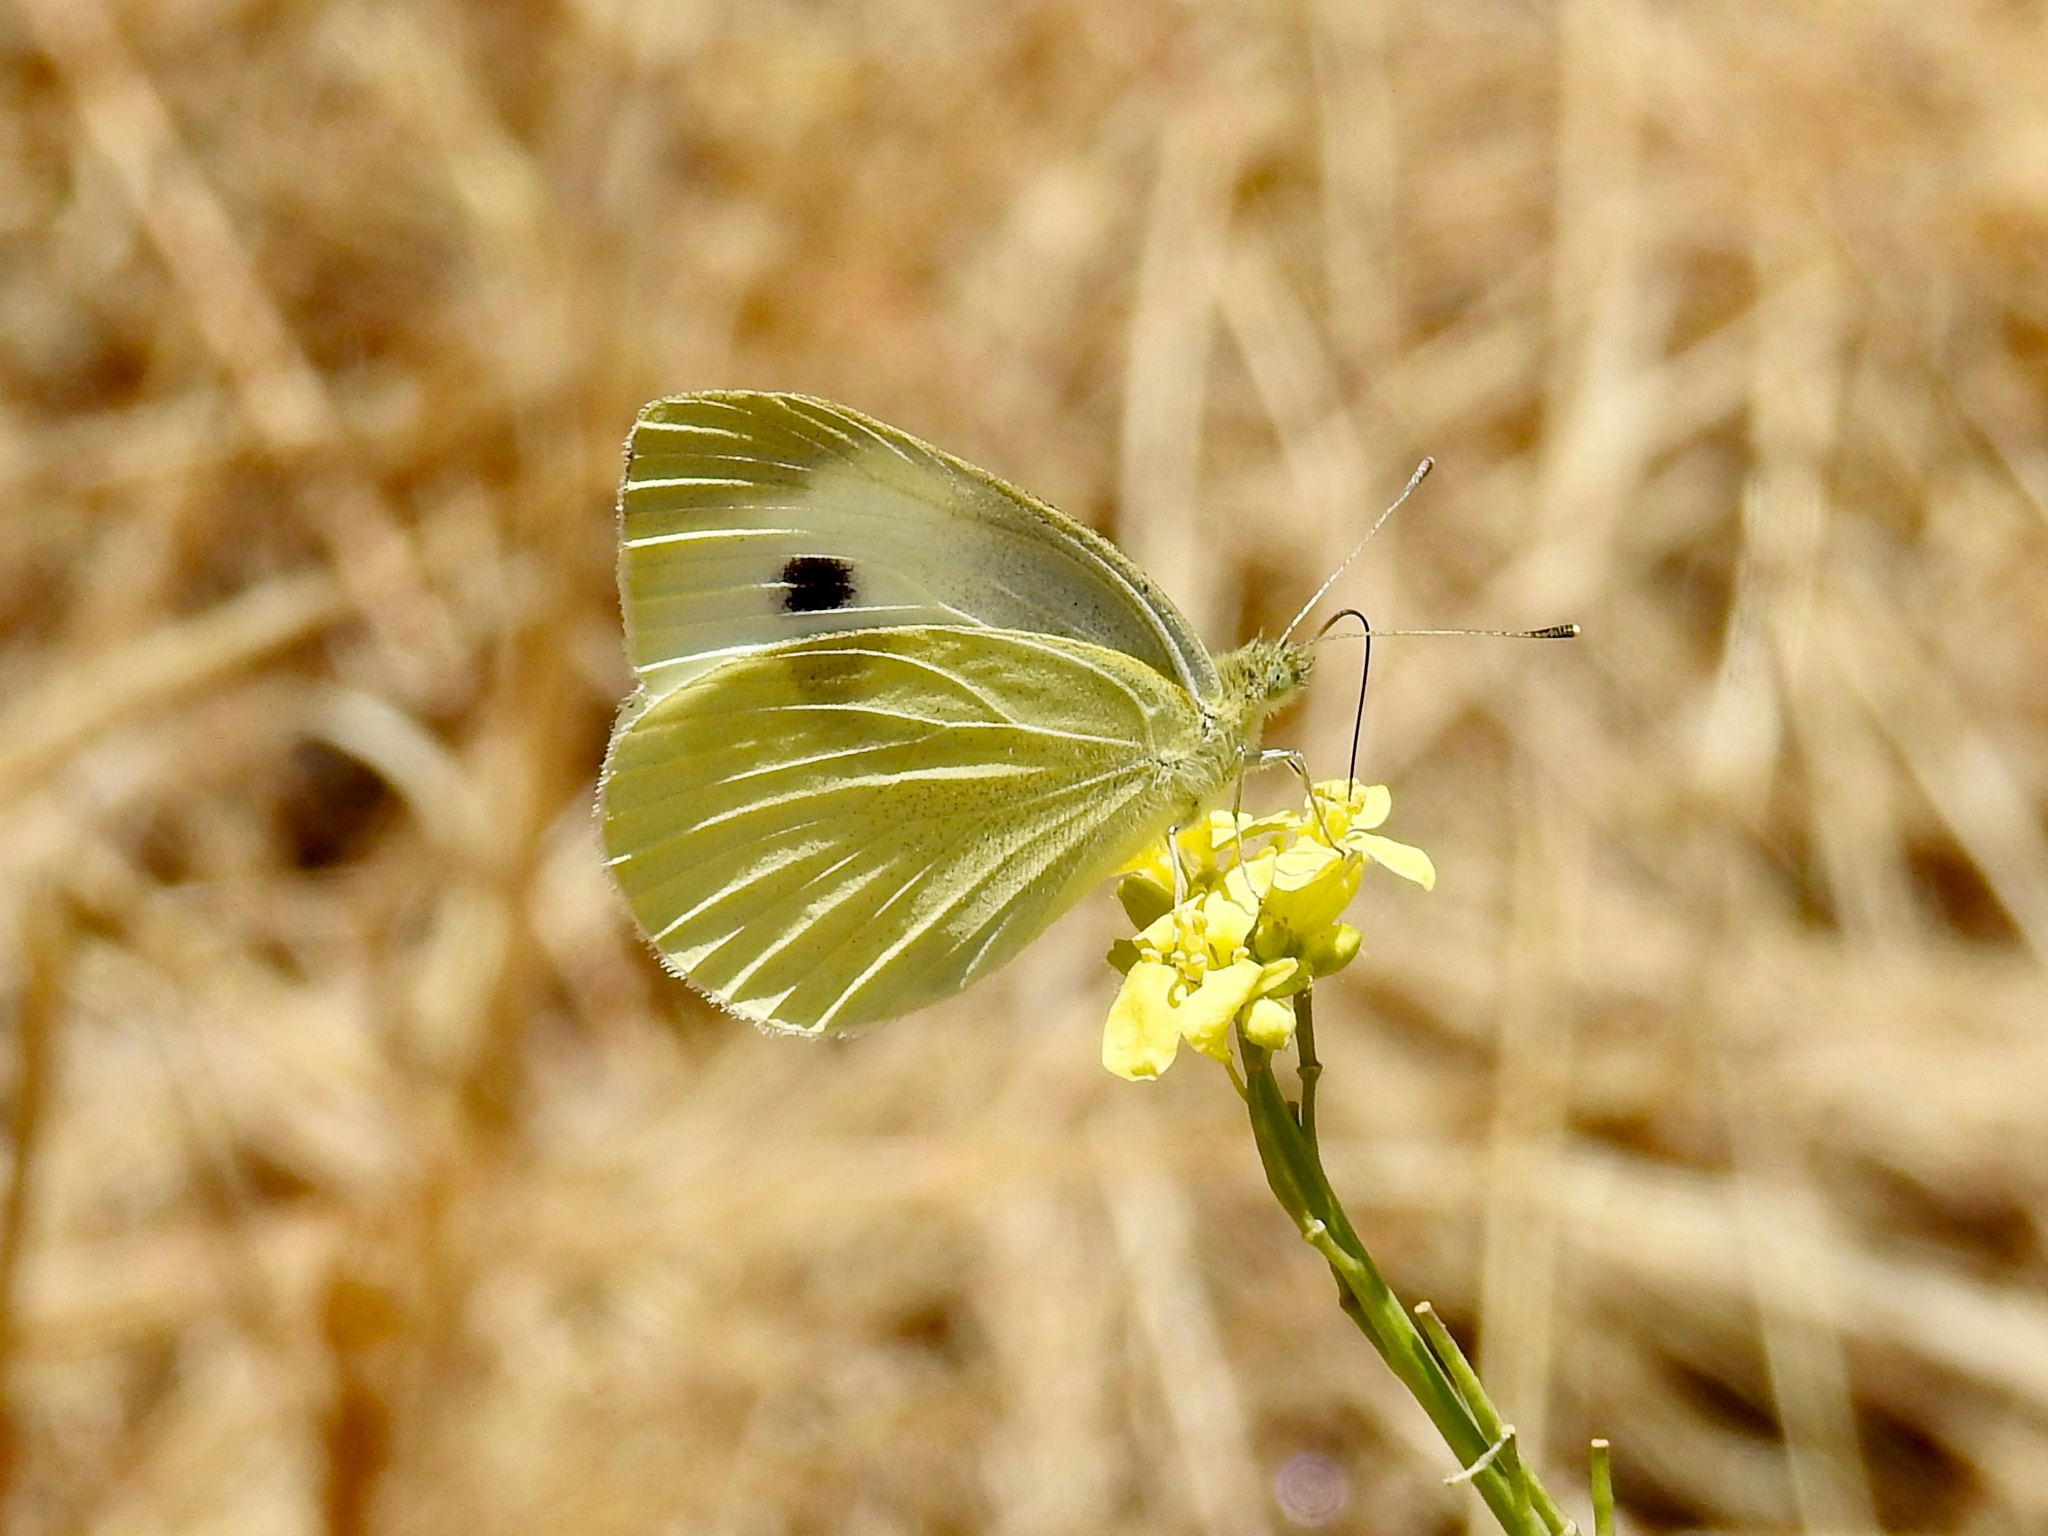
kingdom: Animalia
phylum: Arthropoda
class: Insecta
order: Lepidoptera
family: Pieridae
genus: Pieris
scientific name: Pieris rapae
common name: Small white
